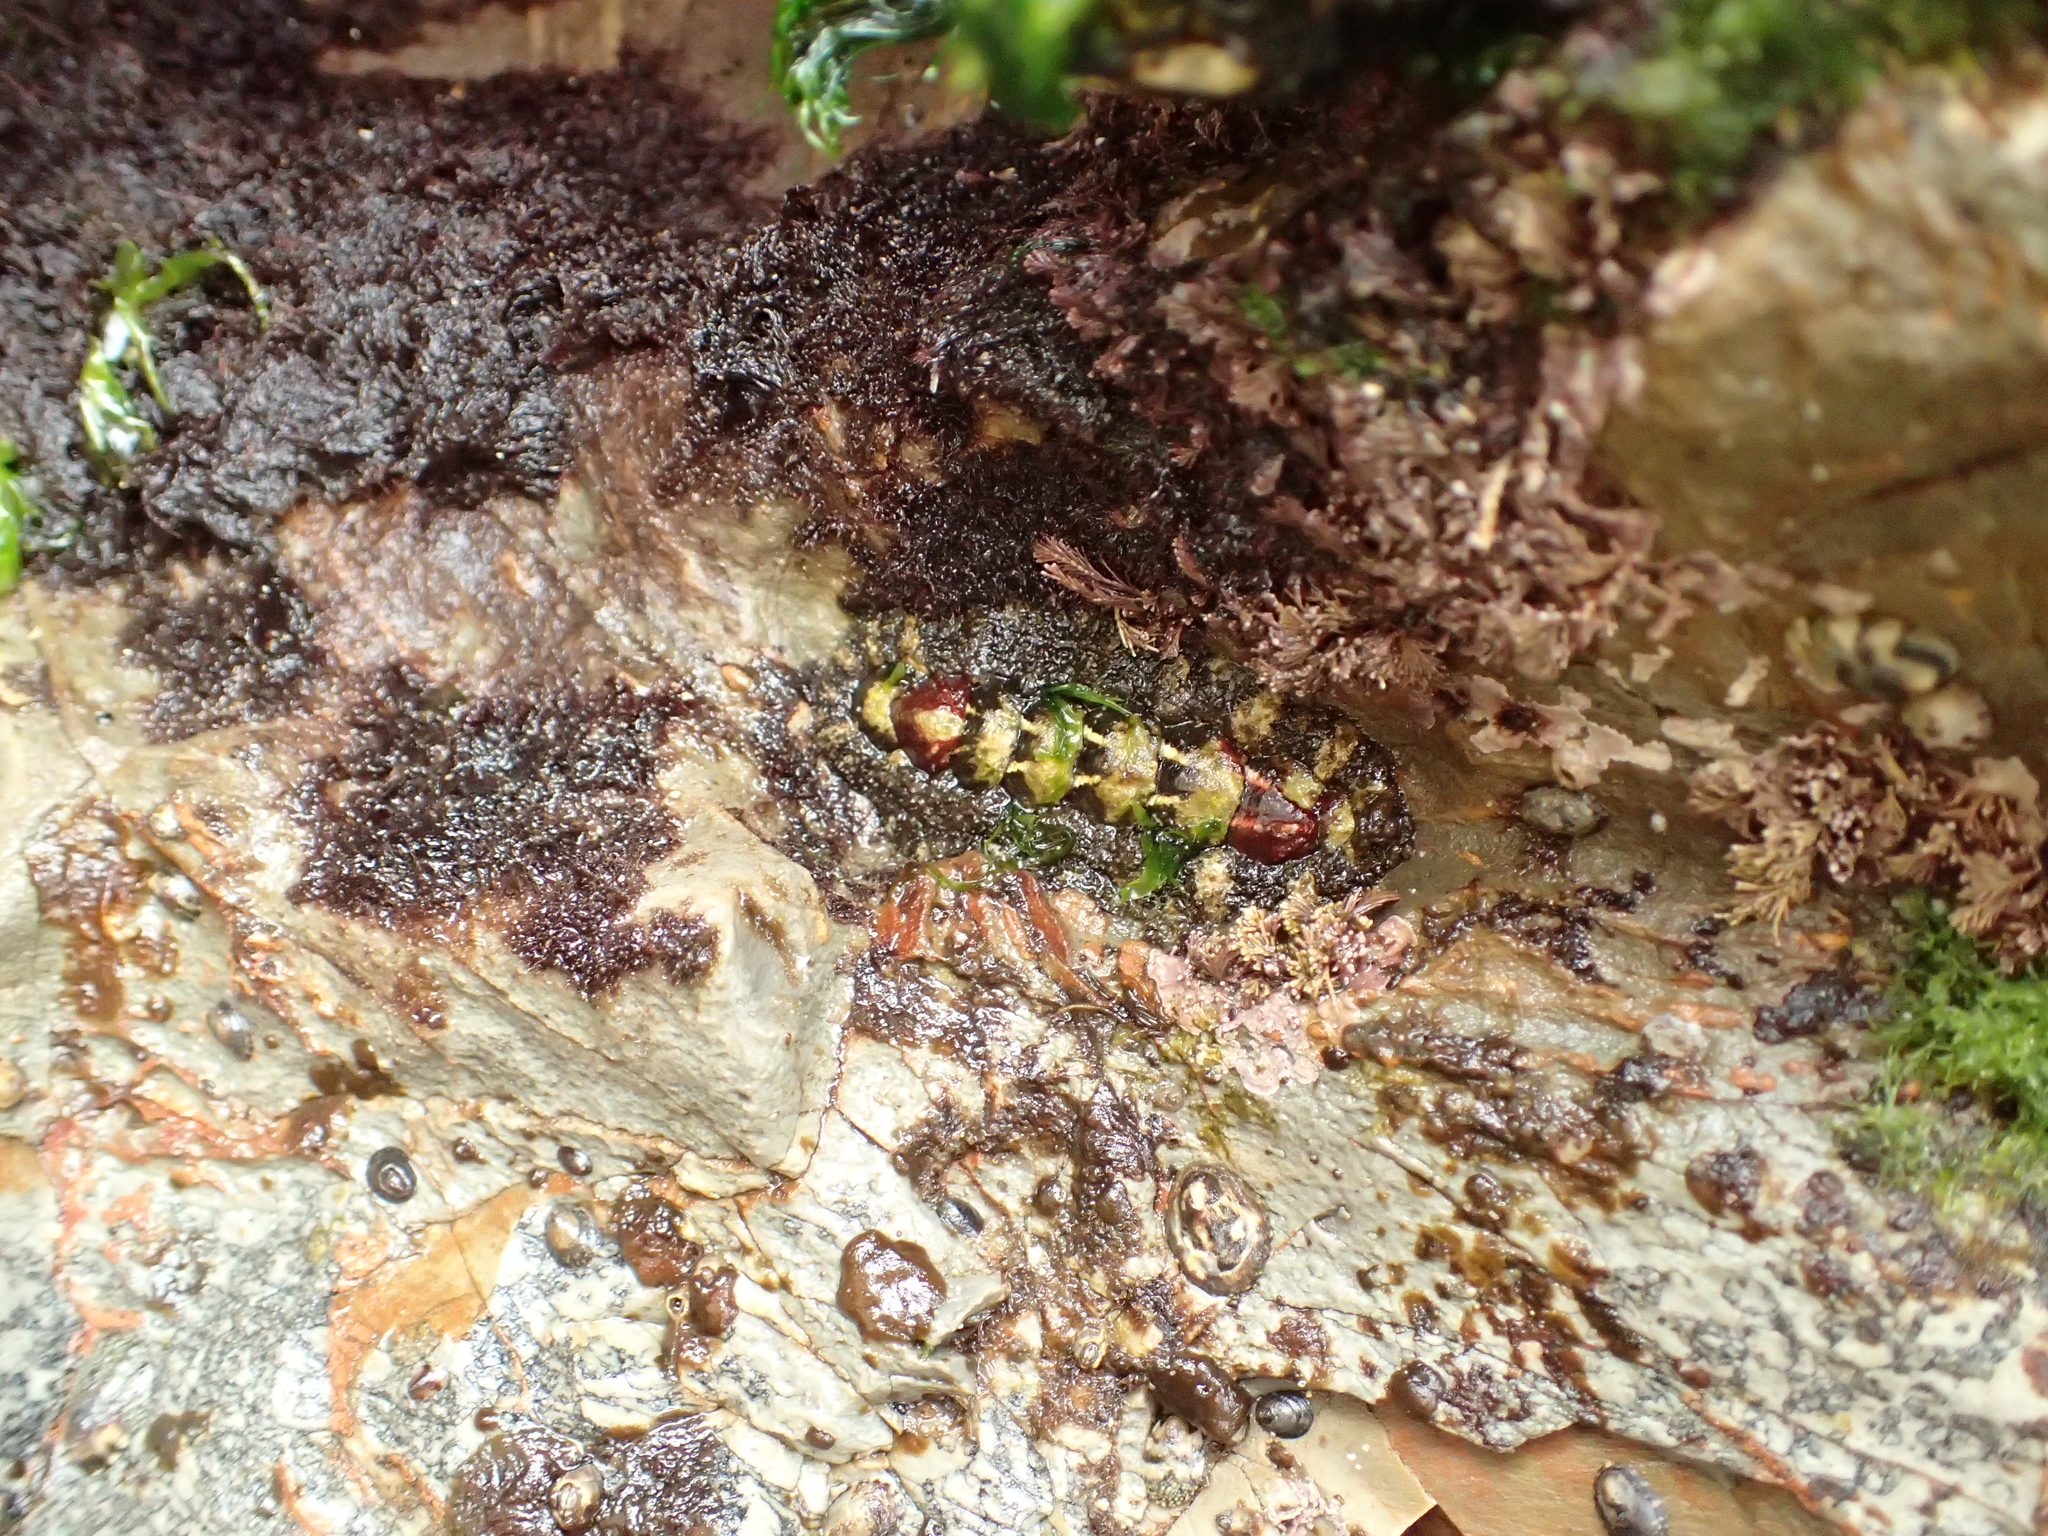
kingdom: Animalia
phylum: Mollusca
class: Polyplacophora
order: Chitonida
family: Tonicellidae
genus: Nuttallina
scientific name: Nuttallina californica
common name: California nuttall chiton
